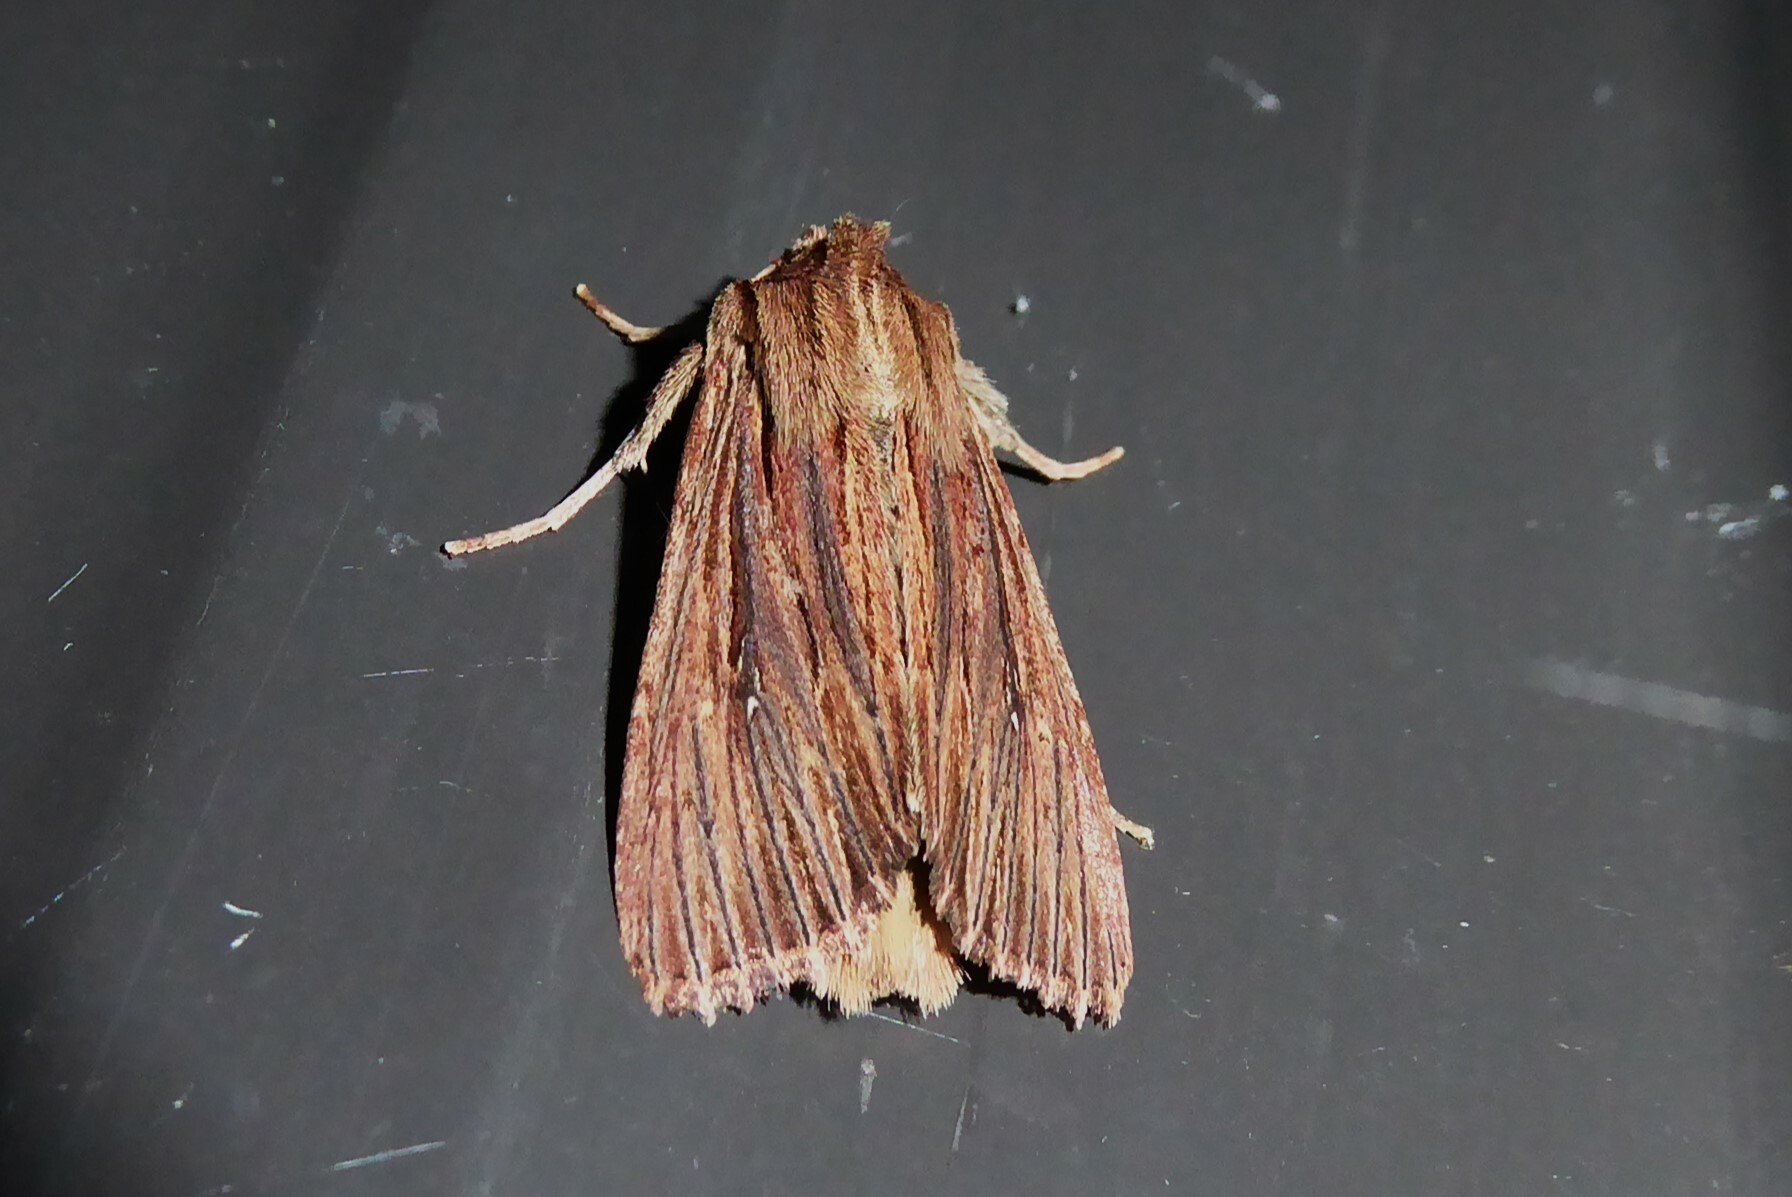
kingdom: Animalia
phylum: Arthropoda
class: Insecta
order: Lepidoptera
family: Noctuidae
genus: Ichneutica
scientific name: Ichneutica
